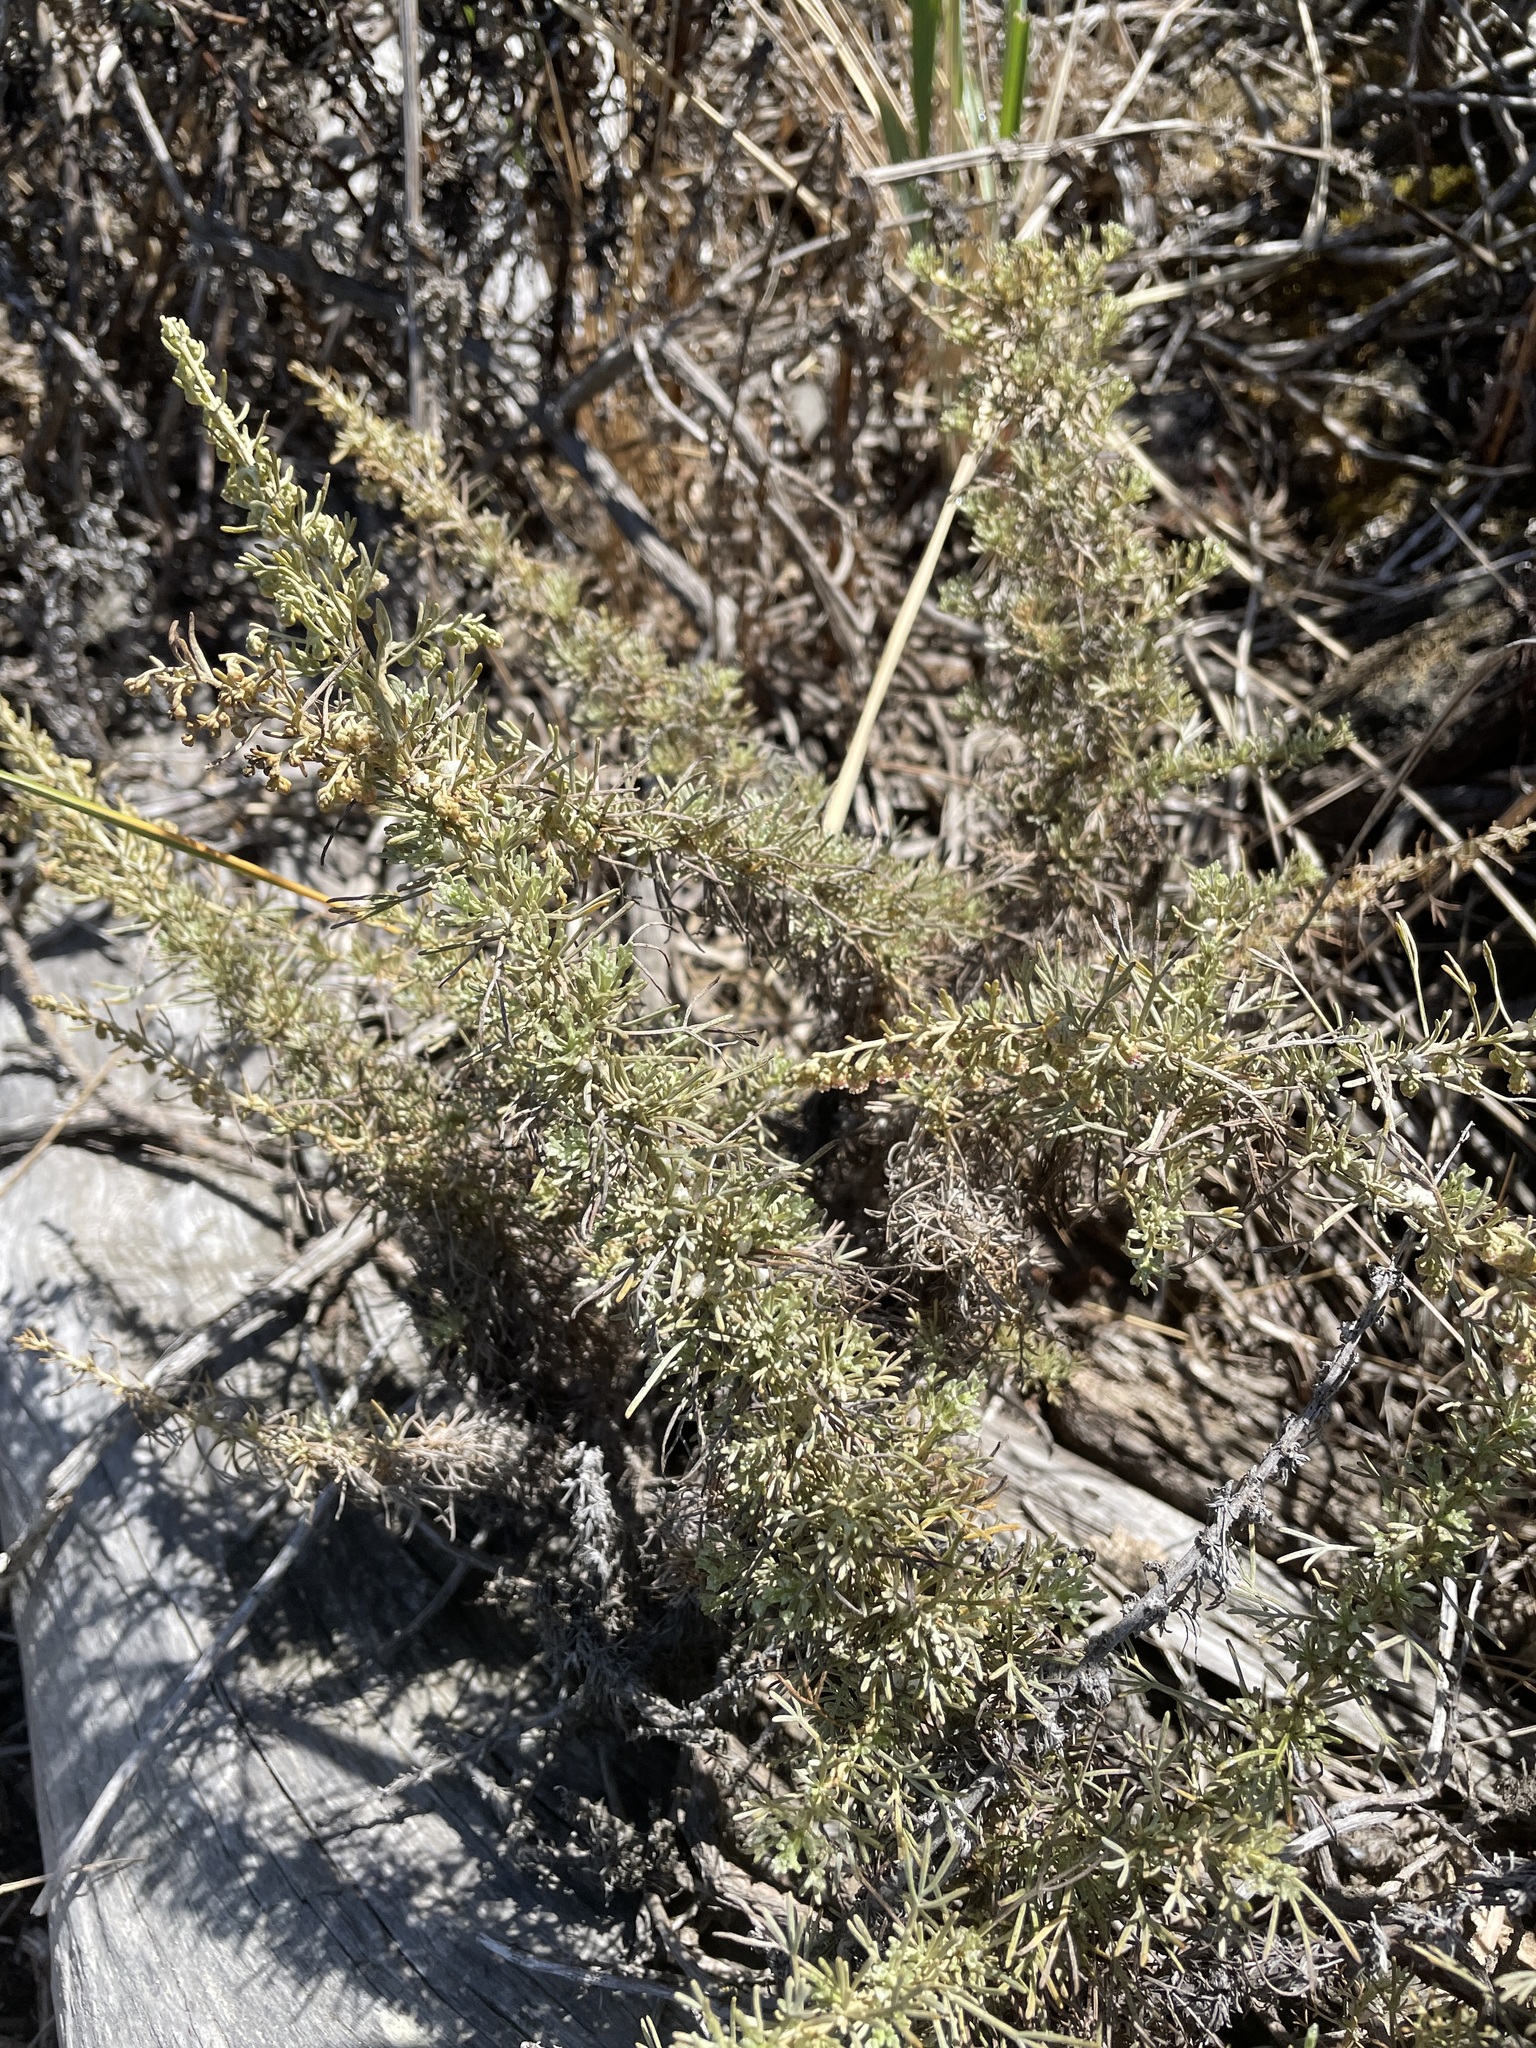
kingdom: Plantae
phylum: Tracheophyta
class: Magnoliopsida
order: Asterales
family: Asteraceae
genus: Artemisia
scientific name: Artemisia californica
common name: California sagebrush
